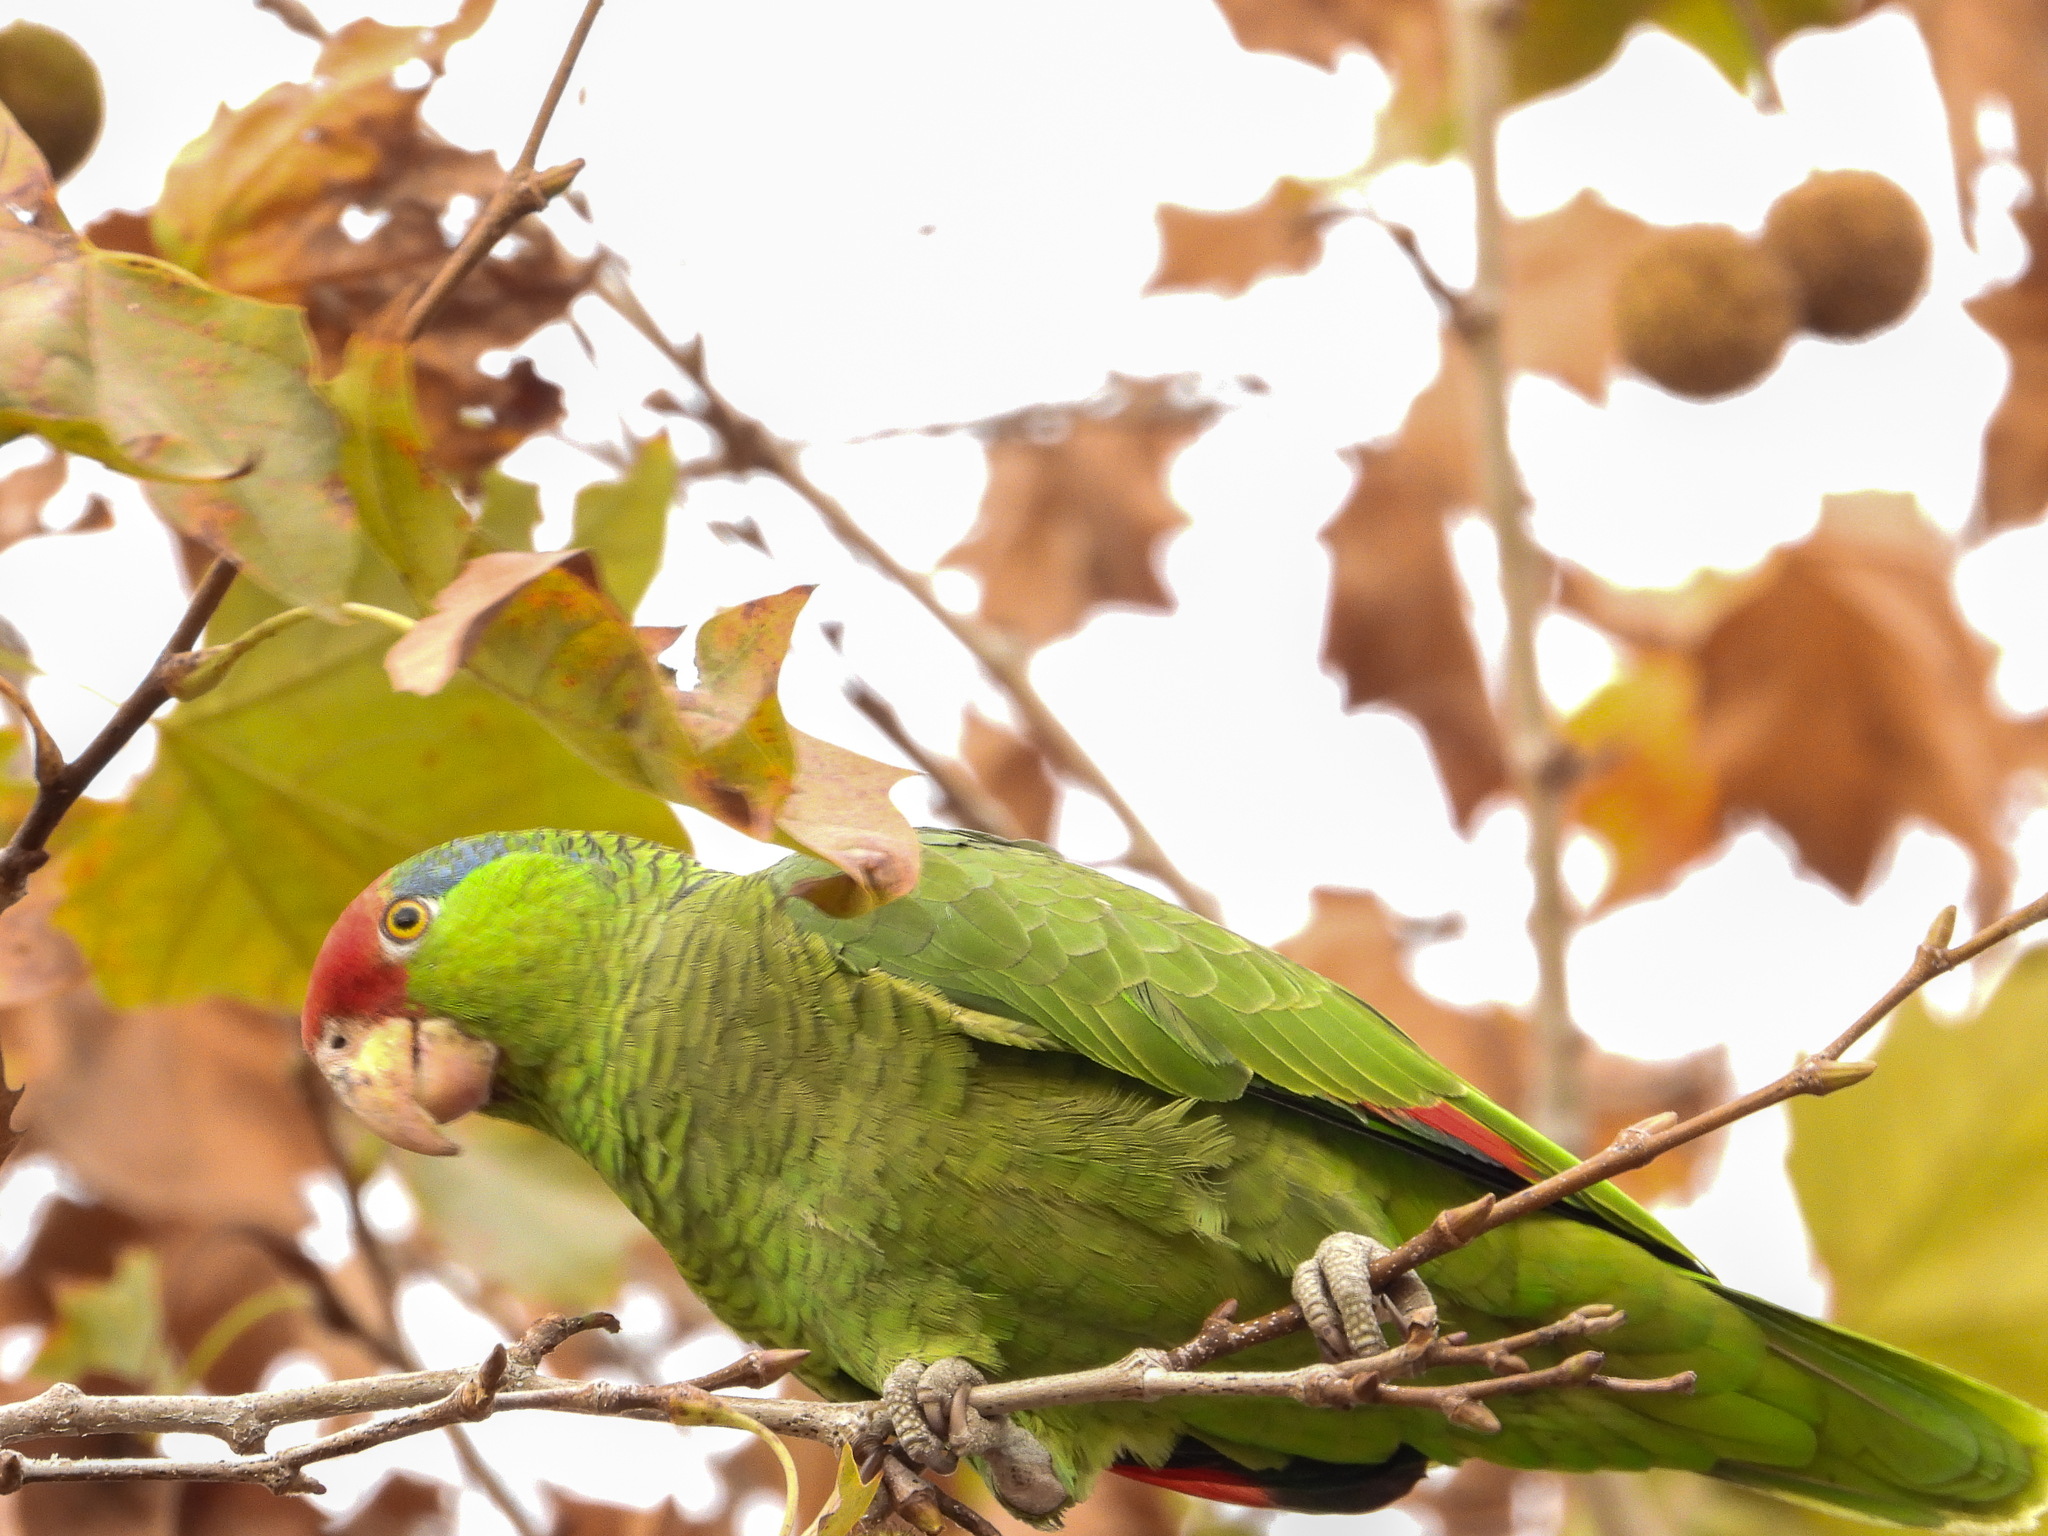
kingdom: Animalia
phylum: Chordata
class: Aves
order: Psittaciformes
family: Psittacidae
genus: Amazona
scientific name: Amazona viridigenalis
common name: Red-crowned amazon
